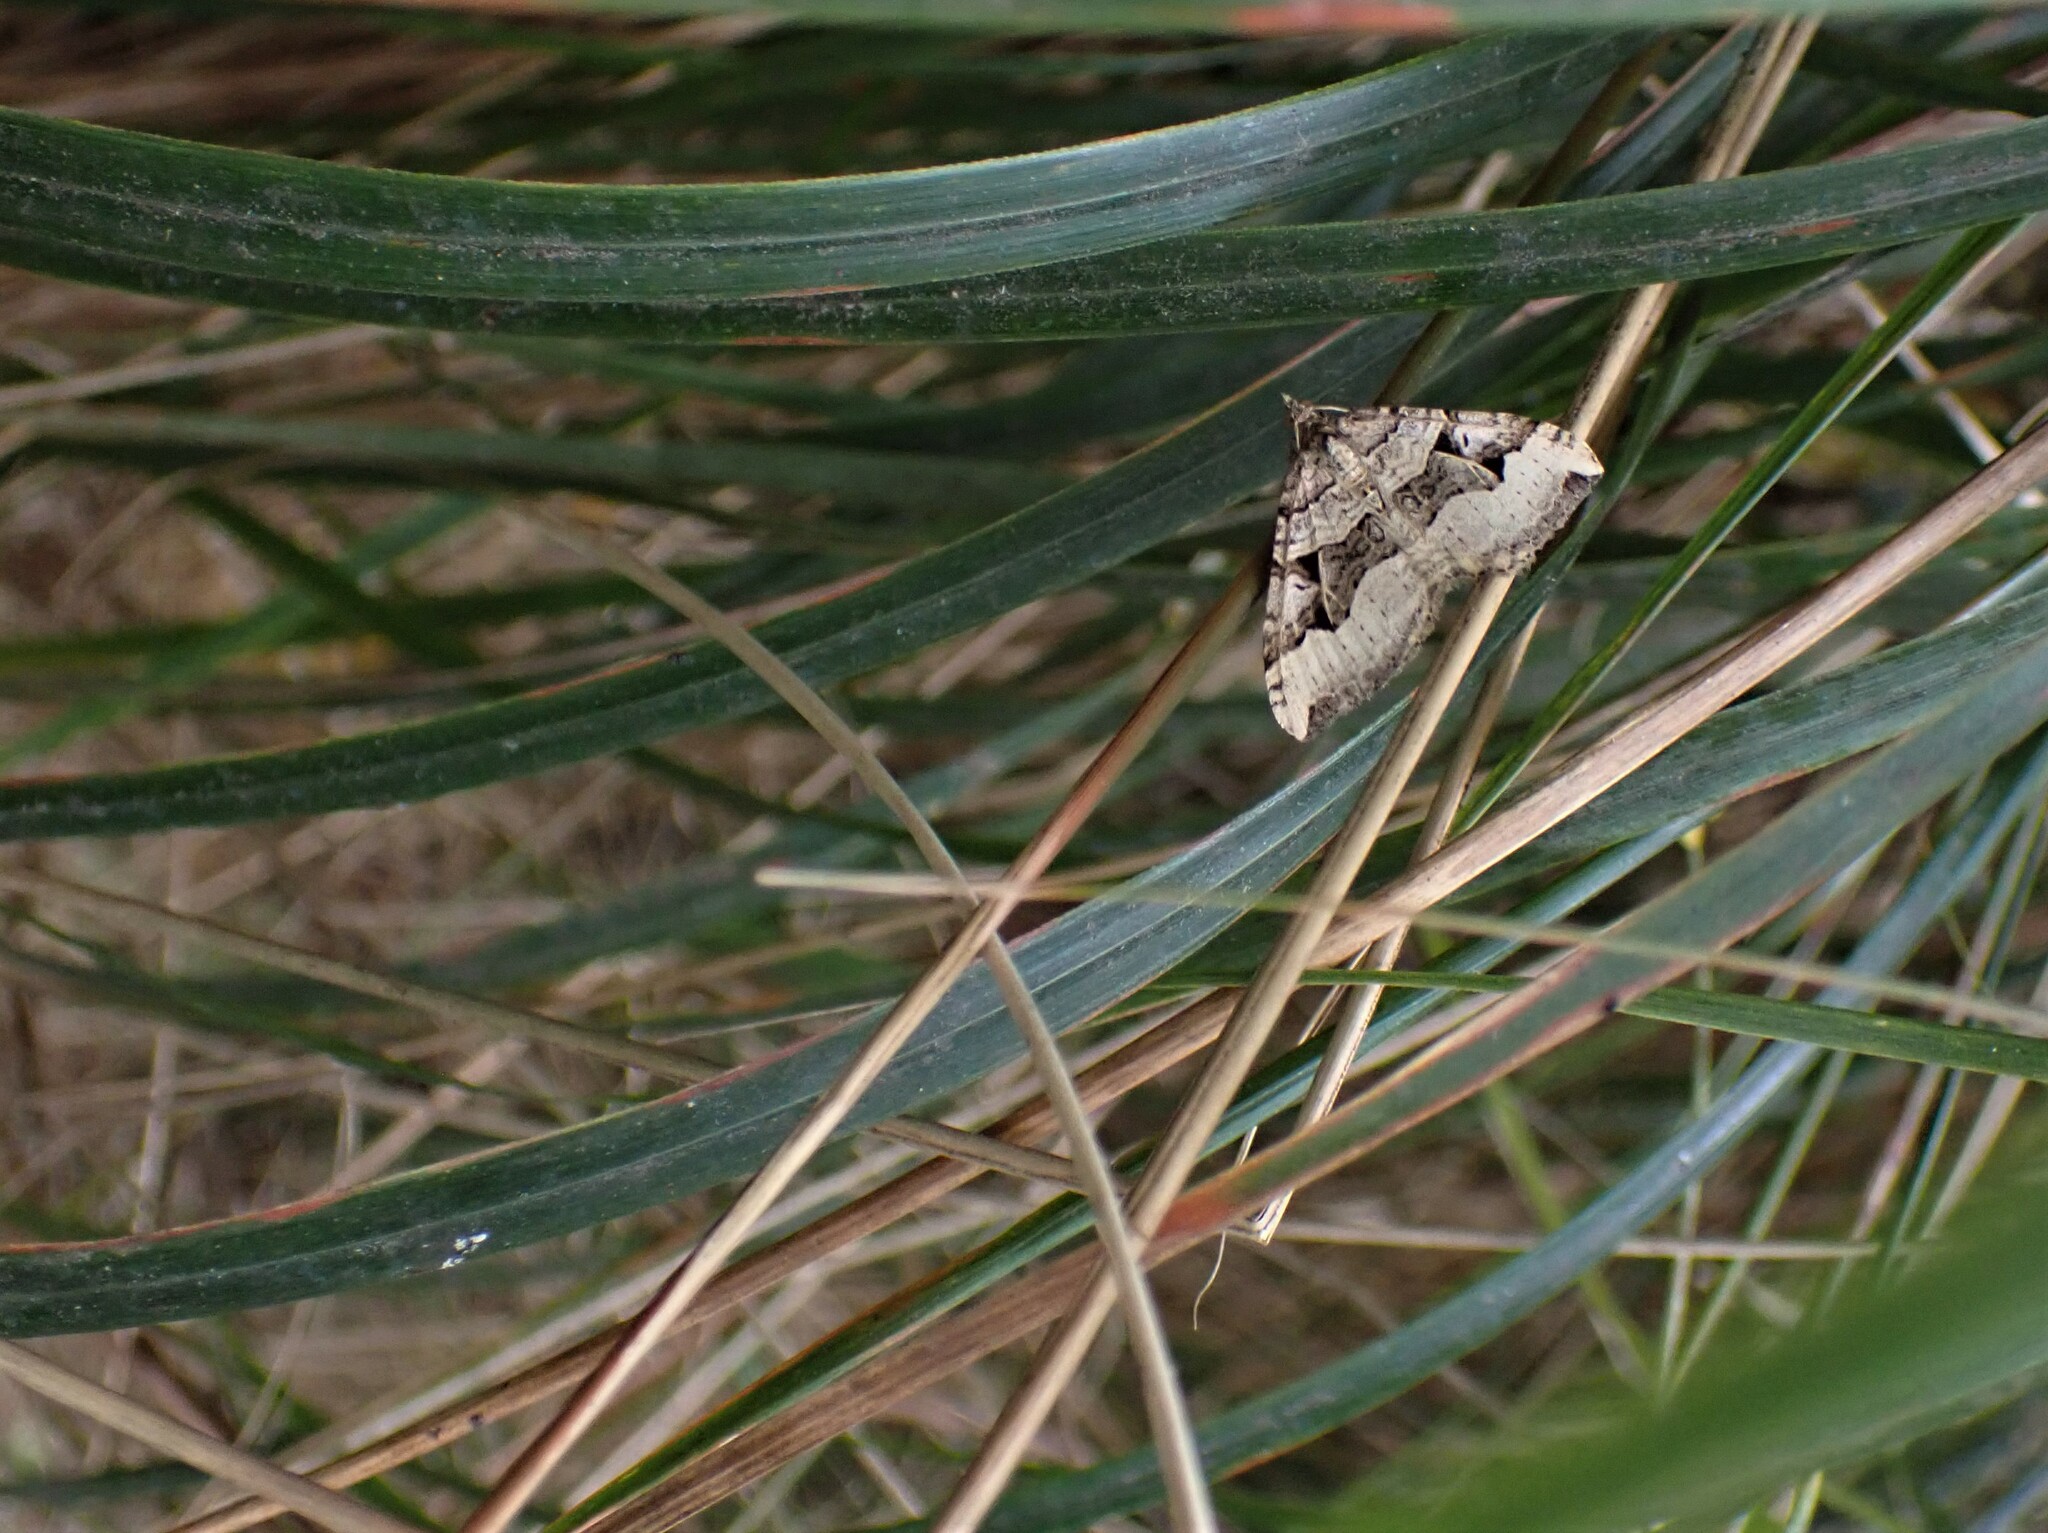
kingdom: Animalia
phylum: Arthropoda
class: Insecta
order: Lepidoptera
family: Geometridae
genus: Xanthorhoe
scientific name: Xanthorhoe semifissata
